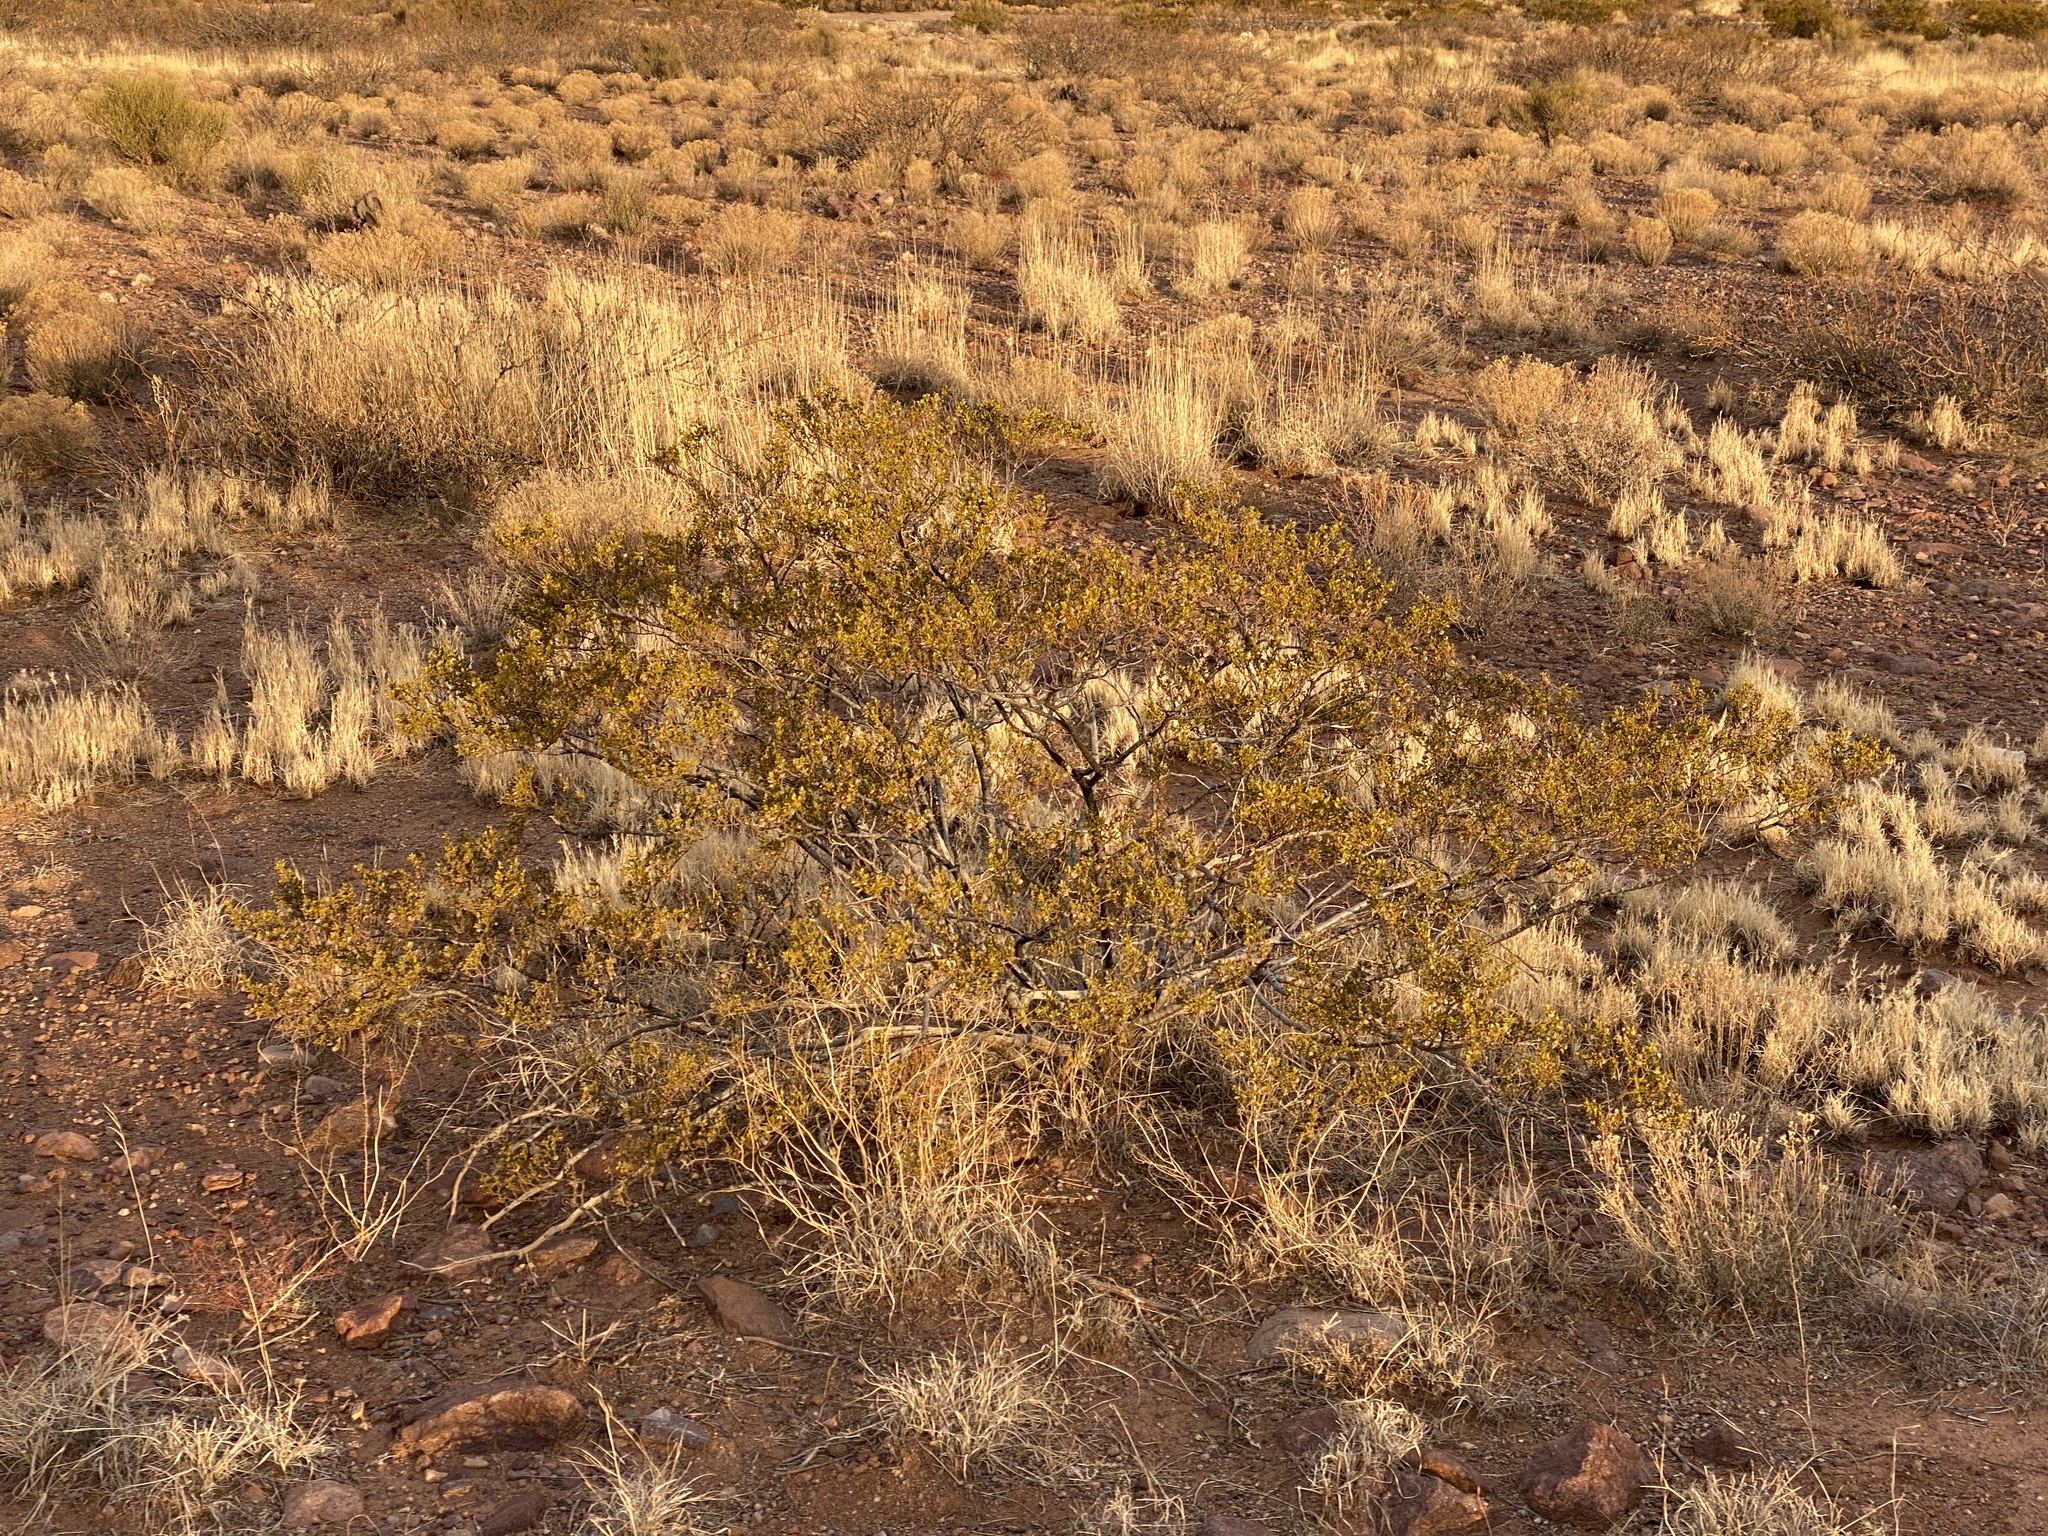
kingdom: Plantae
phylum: Tracheophyta
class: Magnoliopsida
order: Zygophyllales
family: Zygophyllaceae
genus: Larrea
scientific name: Larrea tridentata
